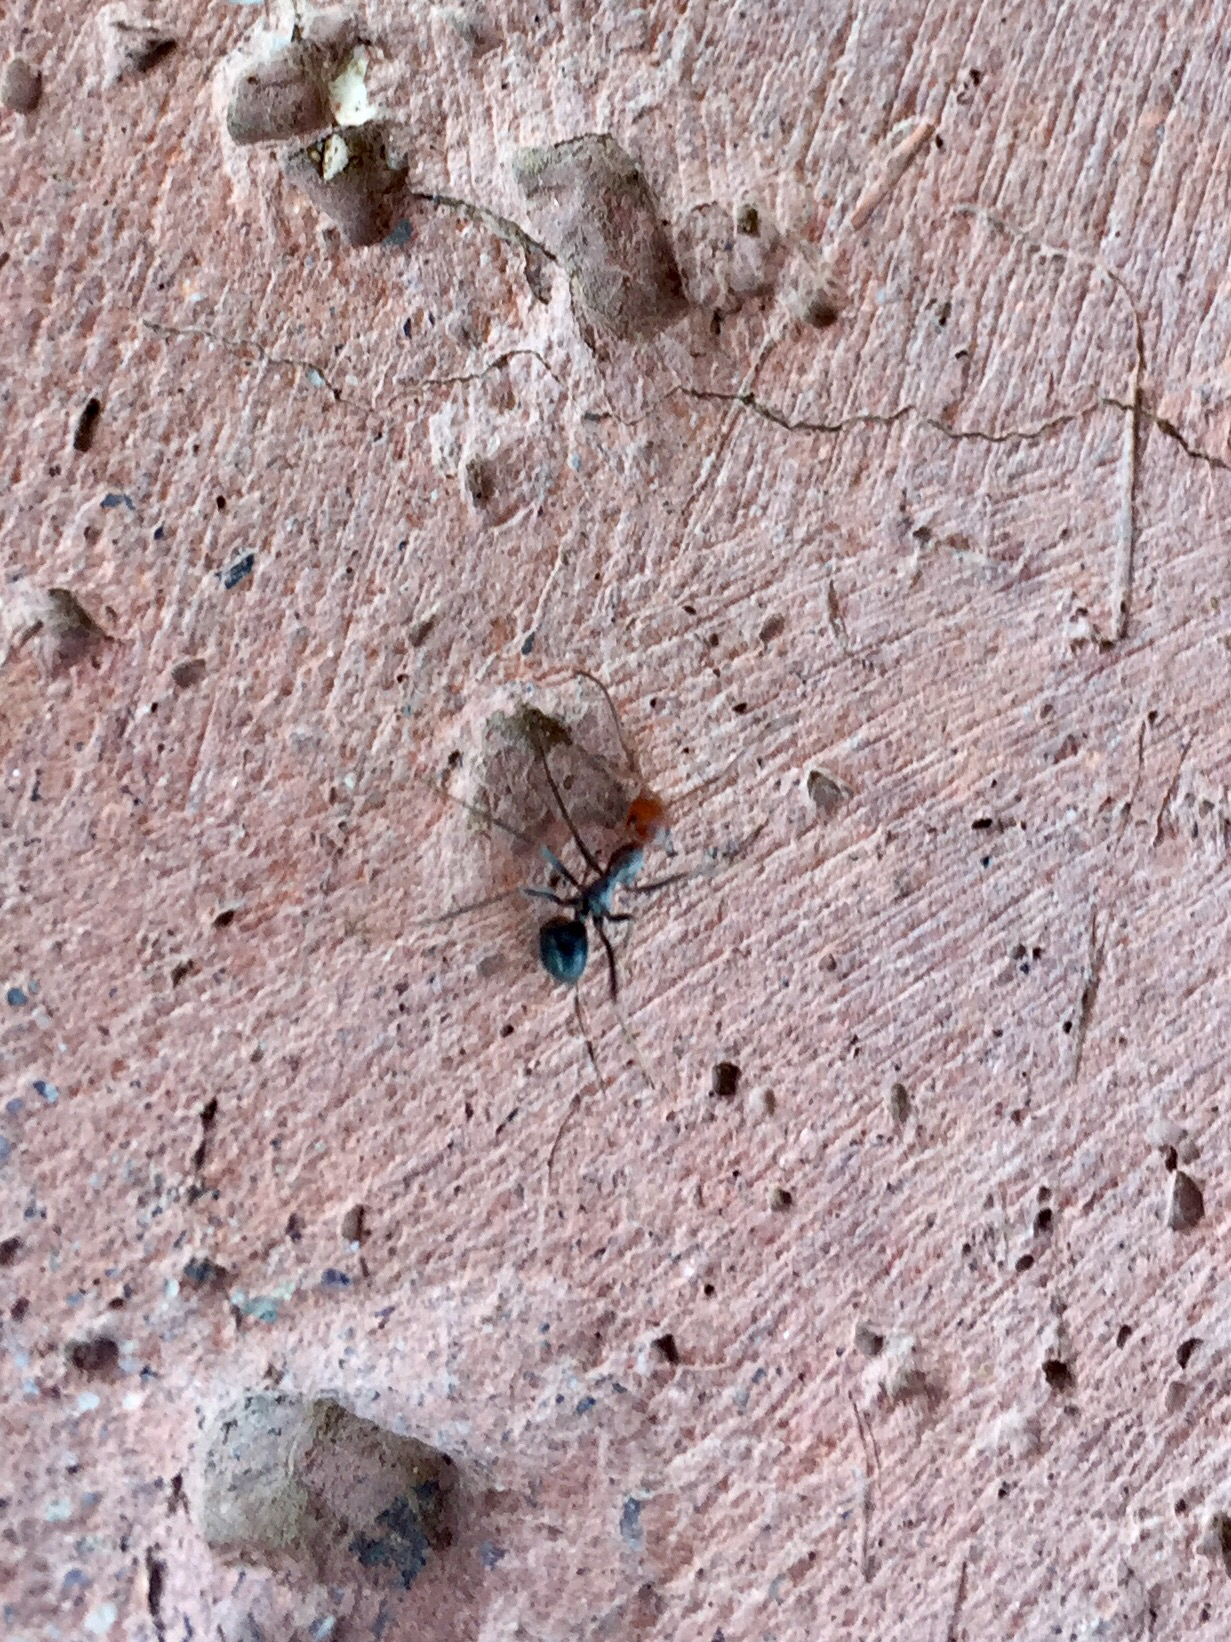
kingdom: Animalia
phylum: Arthropoda
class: Insecta
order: Hymenoptera
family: Formicidae
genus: Myrmecocystus
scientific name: Myrmecocystus mimicus
